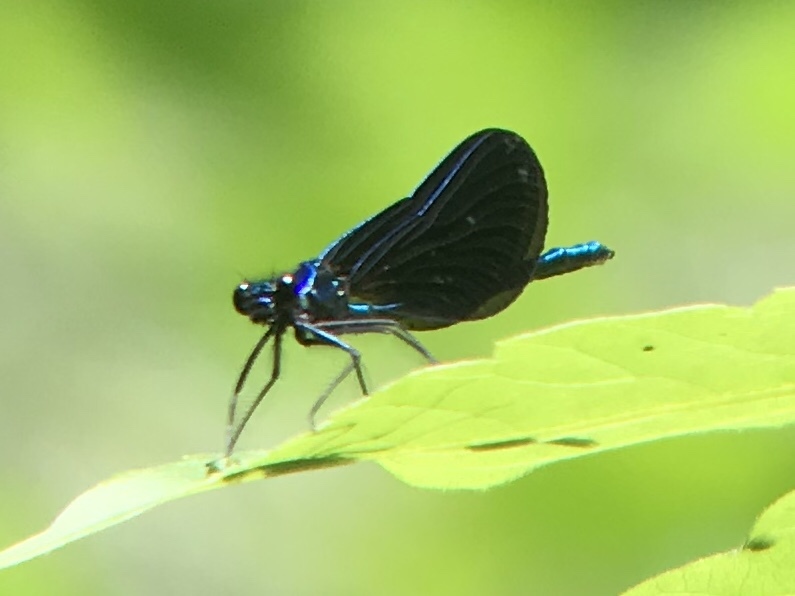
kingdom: Animalia
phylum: Arthropoda
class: Insecta
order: Odonata
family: Calopterygidae
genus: Calopteryx
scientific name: Calopteryx maculata
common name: Ebony jewelwing
